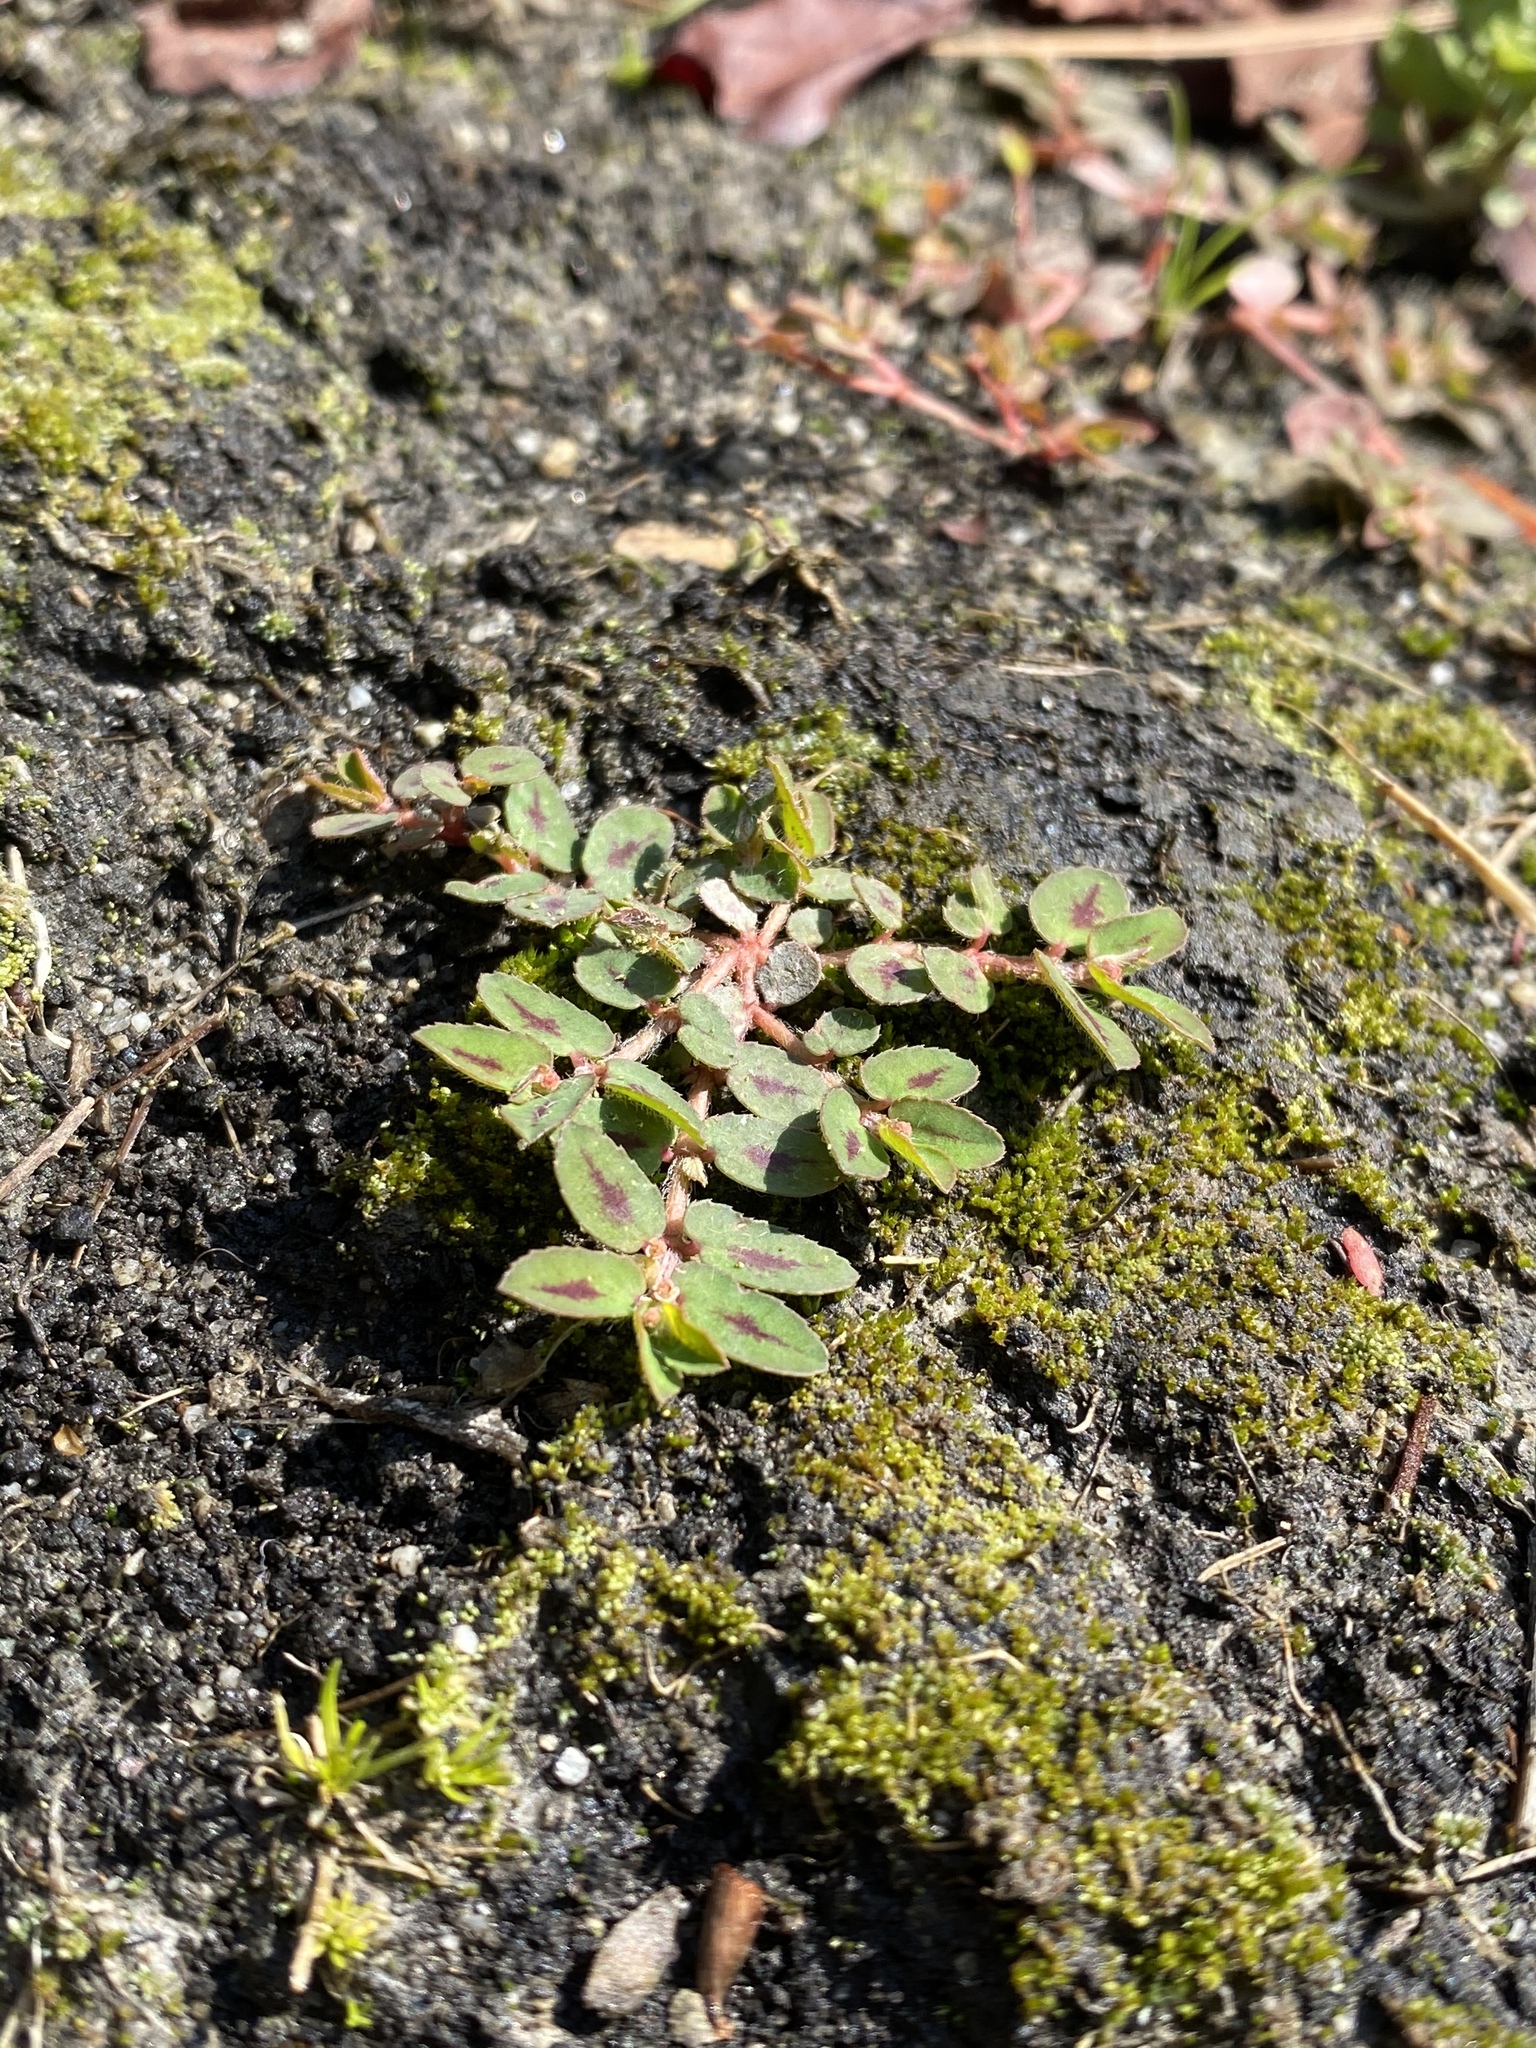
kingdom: Plantae
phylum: Tracheophyta
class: Magnoliopsida
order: Malpighiales
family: Euphorbiaceae
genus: Euphorbia
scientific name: Euphorbia maculata
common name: Spotted spurge
